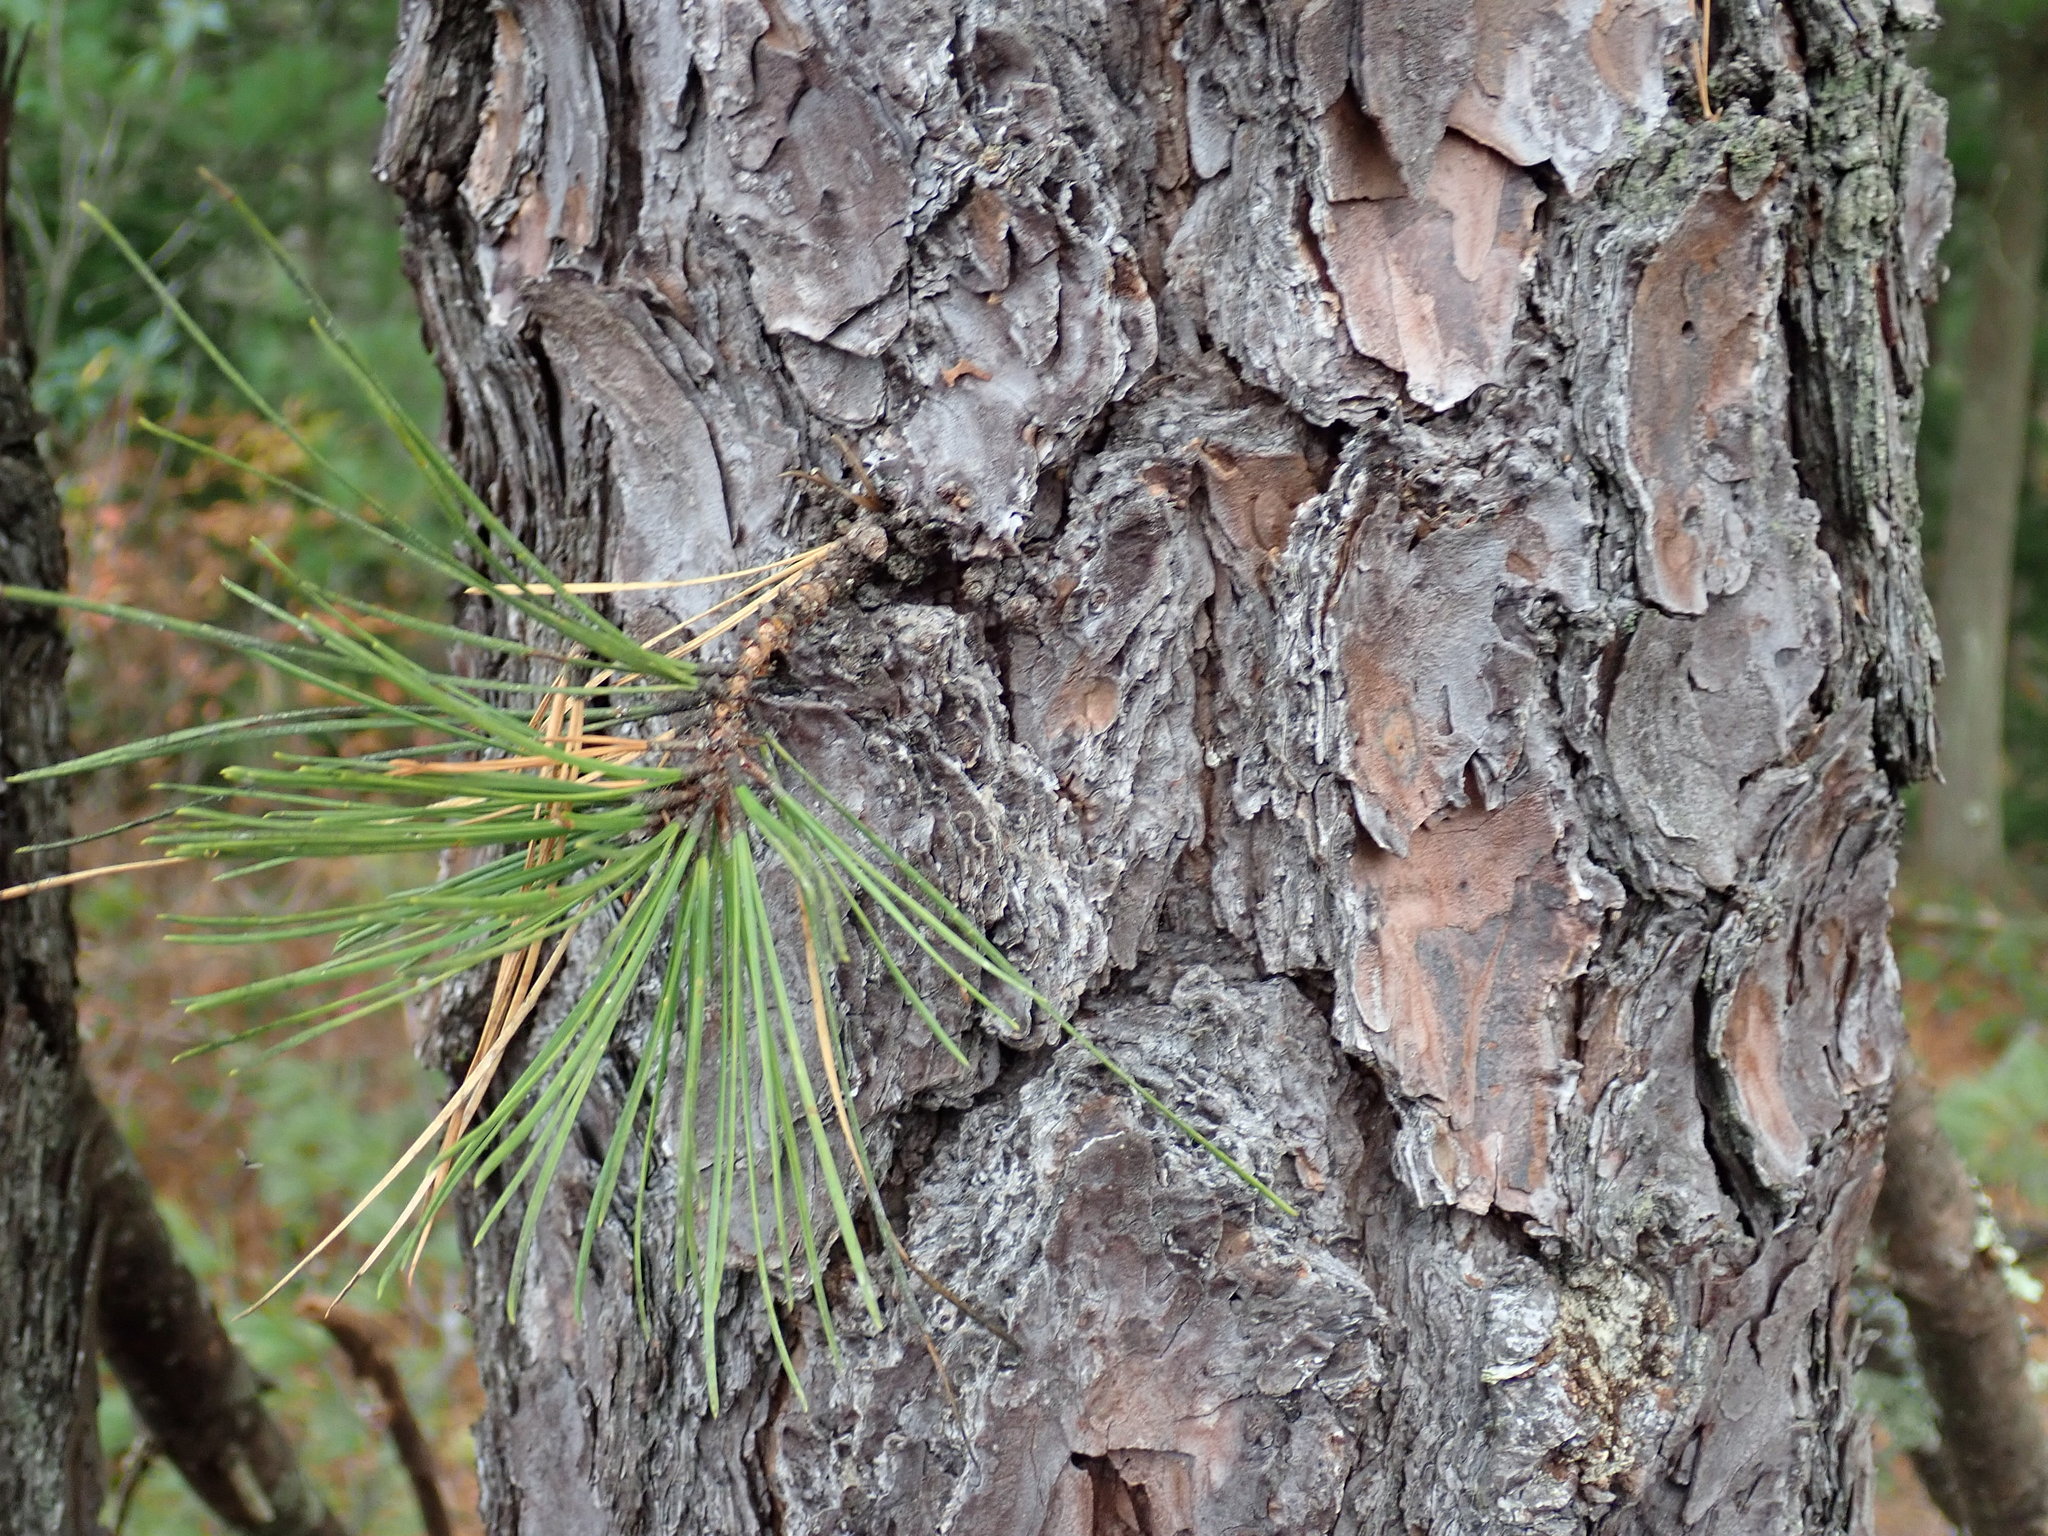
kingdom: Plantae
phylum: Tracheophyta
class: Pinopsida
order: Pinales
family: Pinaceae
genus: Pinus
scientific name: Pinus rigida
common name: Pitch pine
